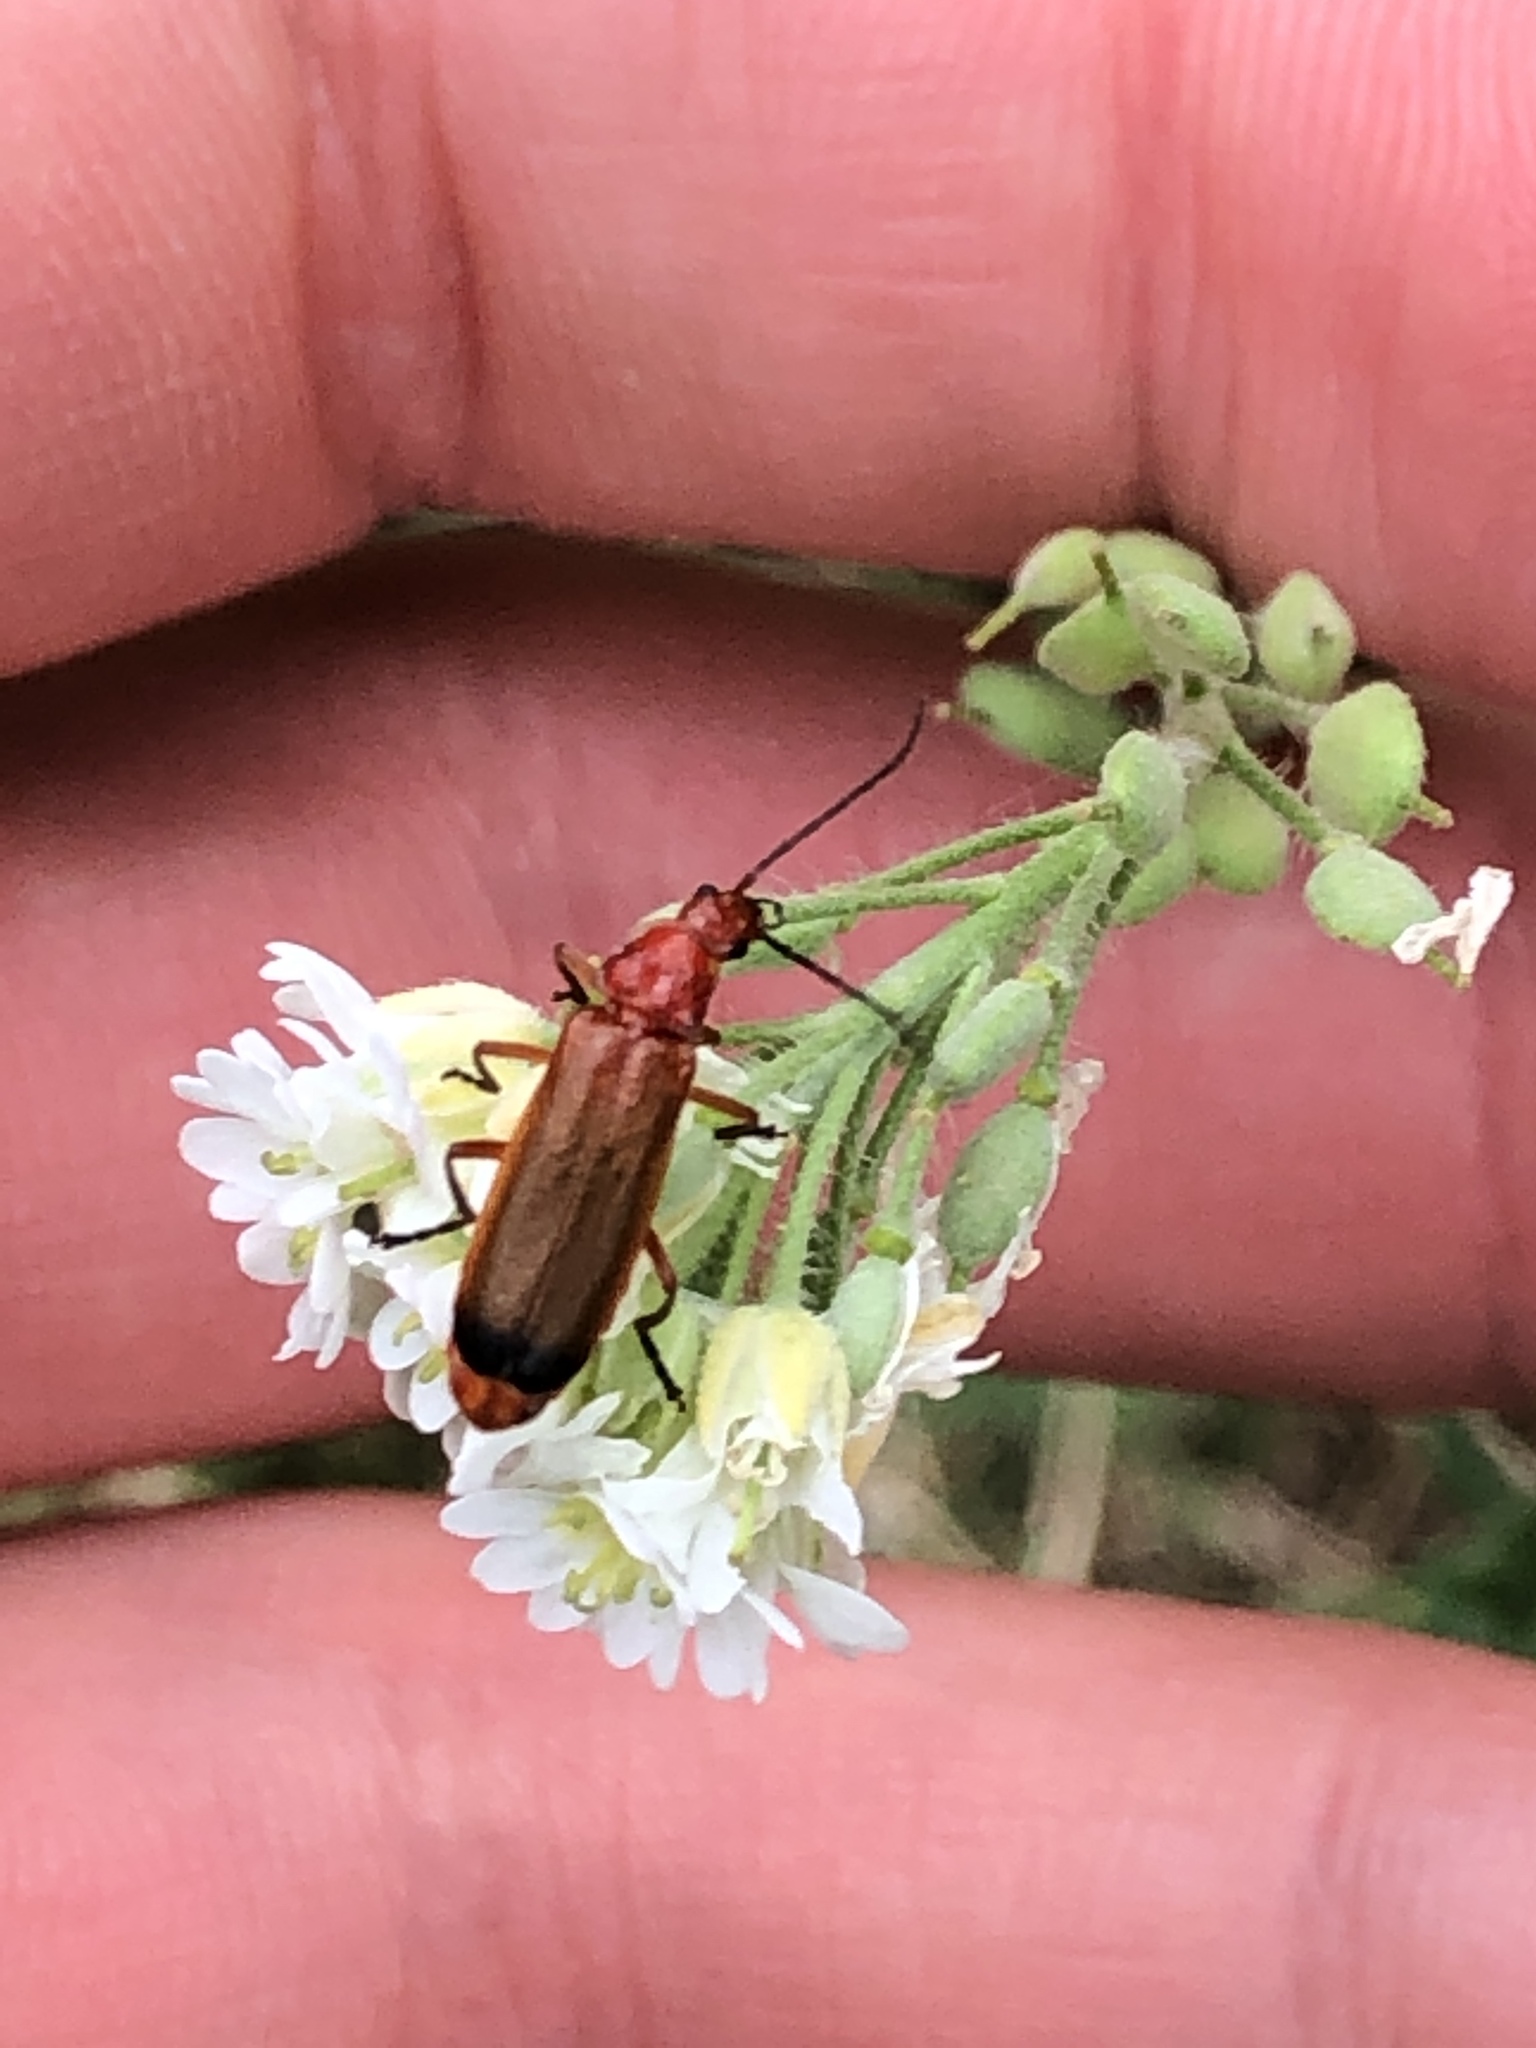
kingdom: Animalia
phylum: Arthropoda
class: Insecta
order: Coleoptera
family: Cantharidae
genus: Rhagonycha
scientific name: Rhagonycha fulva
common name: Common red soldier beetle
